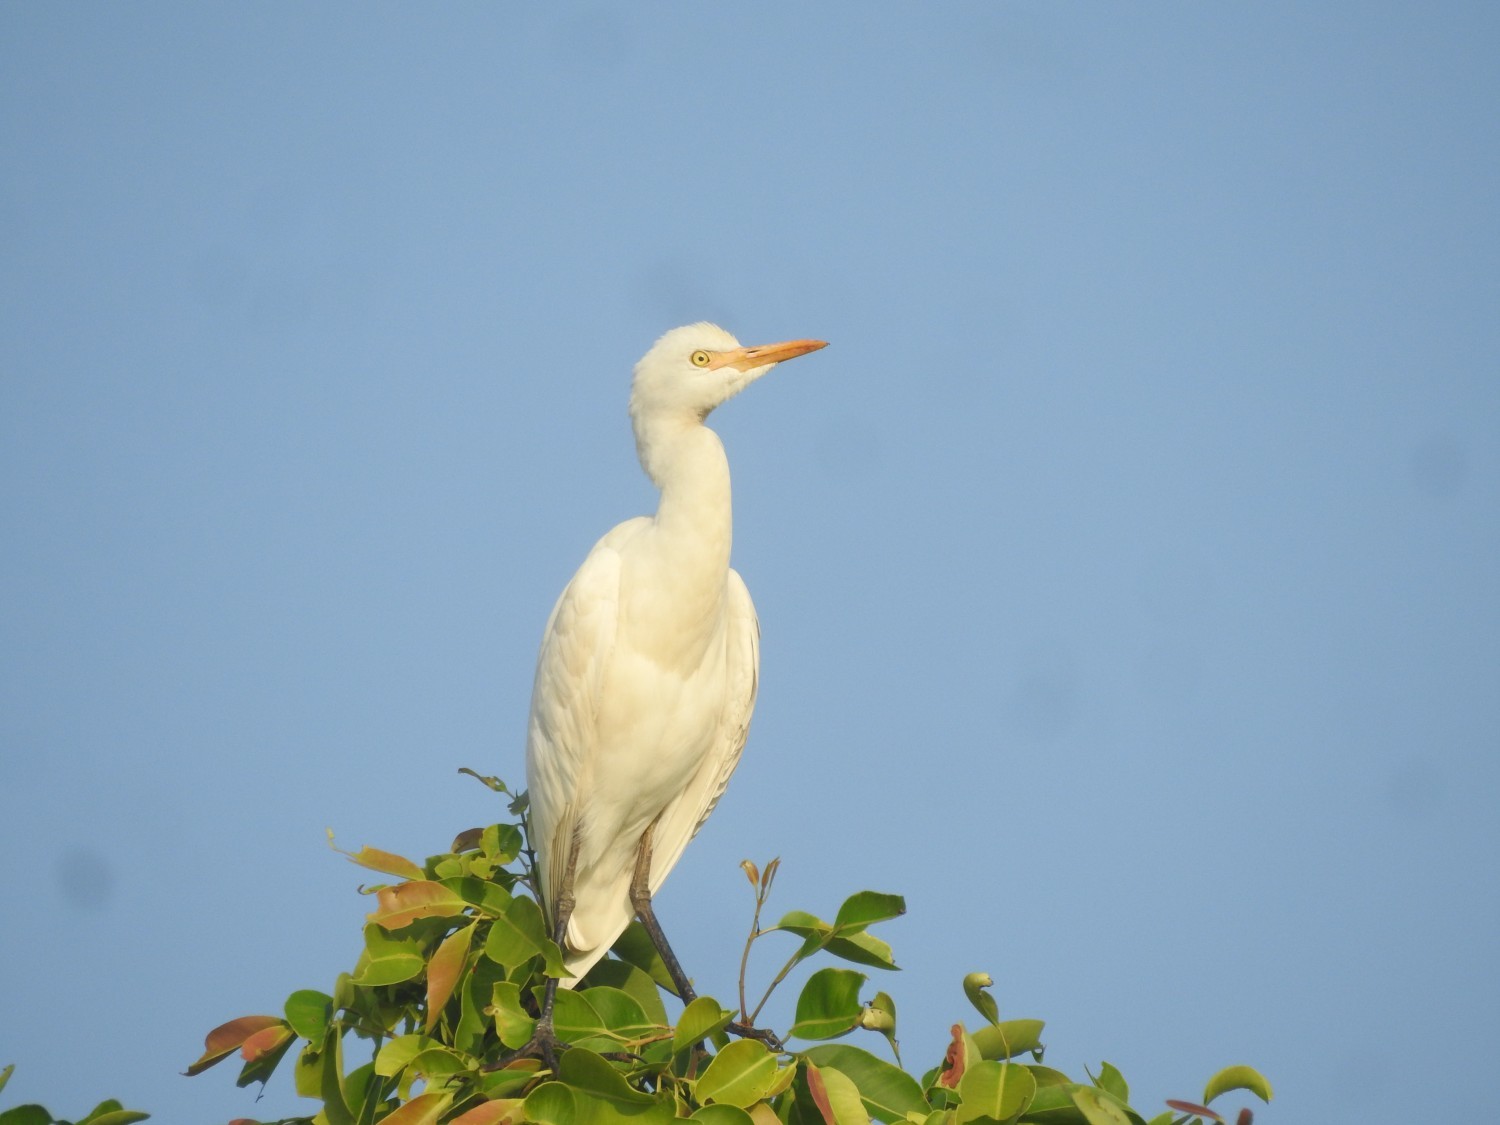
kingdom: Animalia
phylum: Chordata
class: Aves
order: Pelecaniformes
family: Ardeidae
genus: Bubulcus
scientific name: Bubulcus coromandus
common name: Eastern cattle egret
